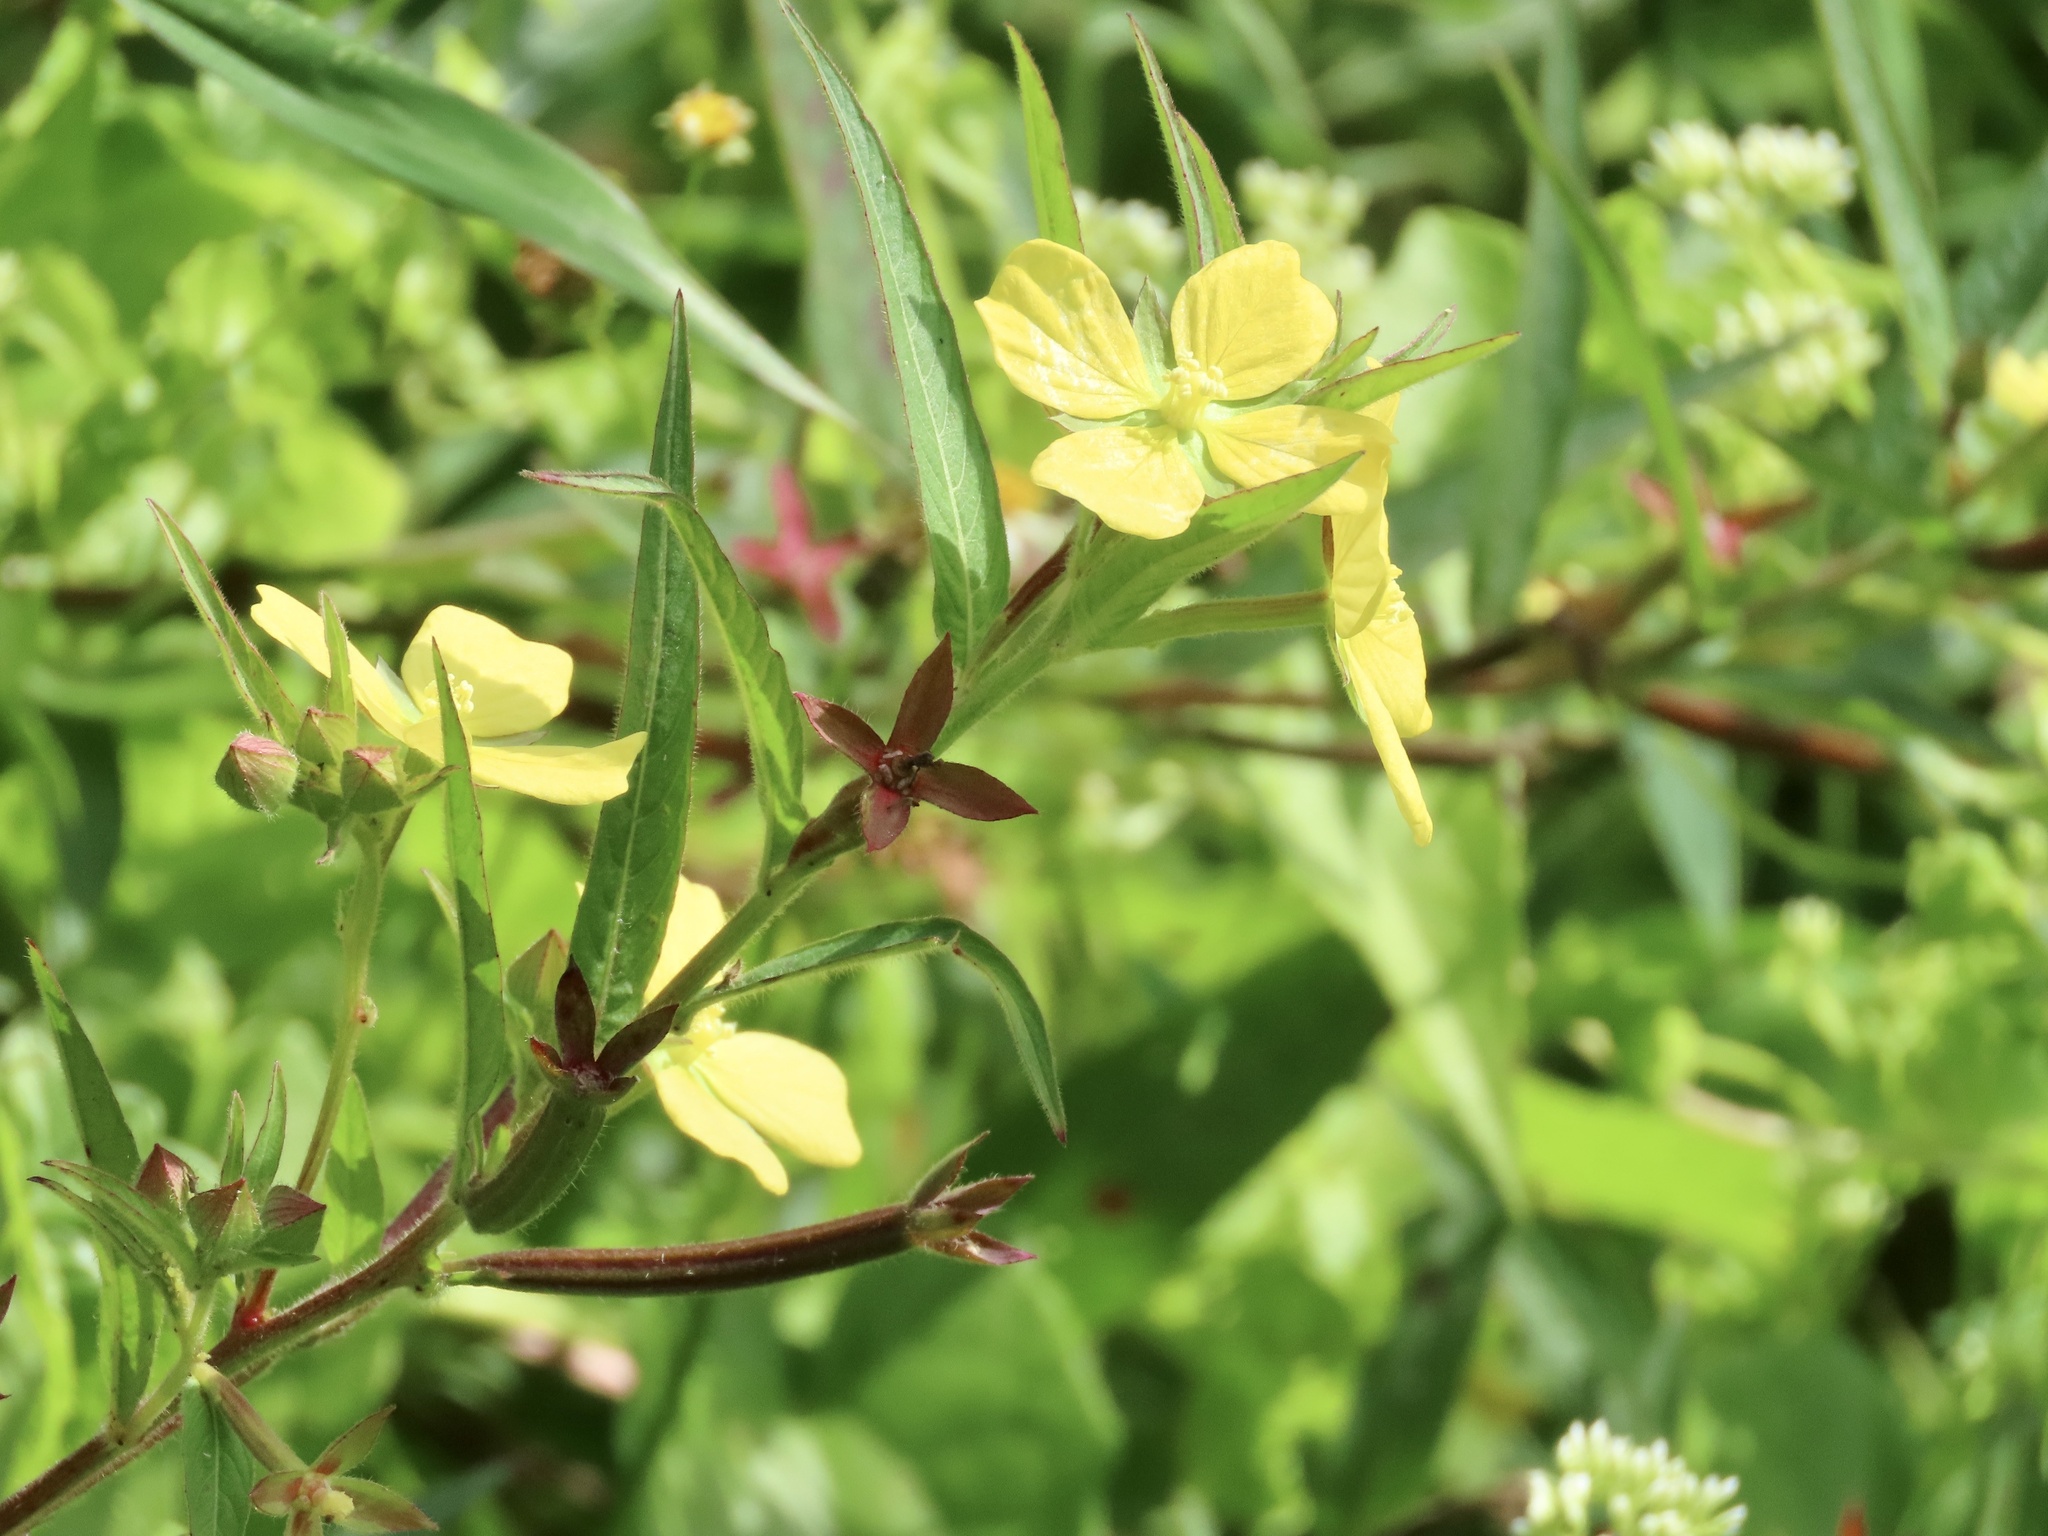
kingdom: Plantae
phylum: Tracheophyta
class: Magnoliopsida
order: Myrtales
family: Onagraceae
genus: Ludwigia
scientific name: Ludwigia octovalvis
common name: Water-primrose
